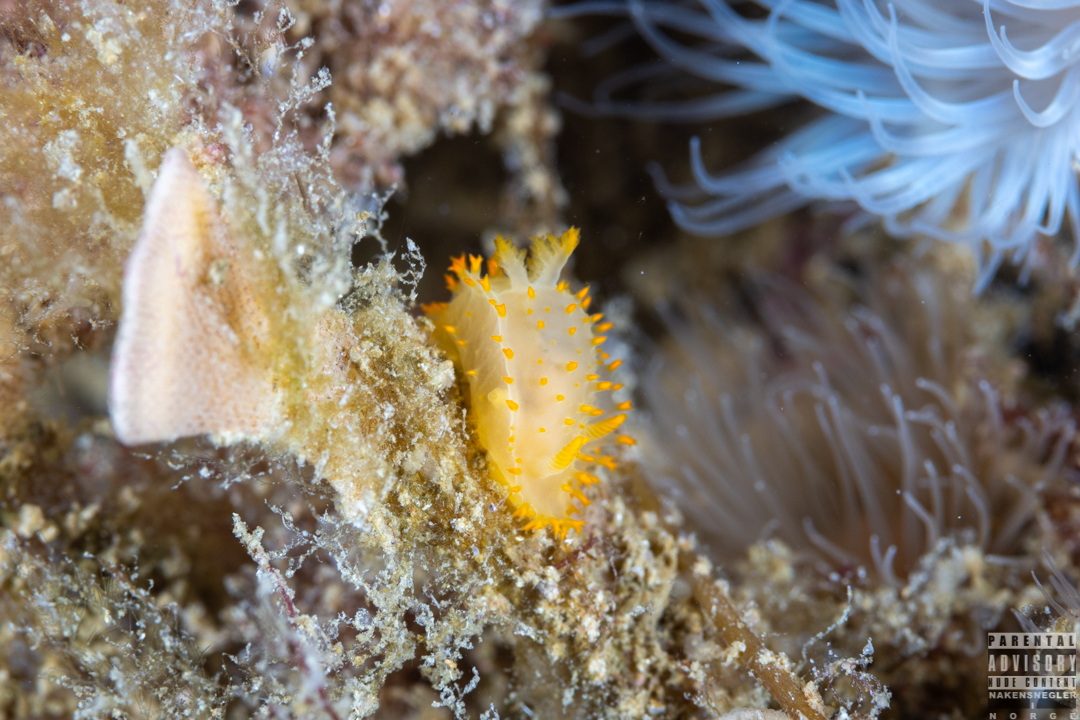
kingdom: Animalia
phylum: Mollusca
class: Gastropoda
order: Nudibranchia
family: Polyceridae
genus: Crimora
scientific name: Crimora papillata
